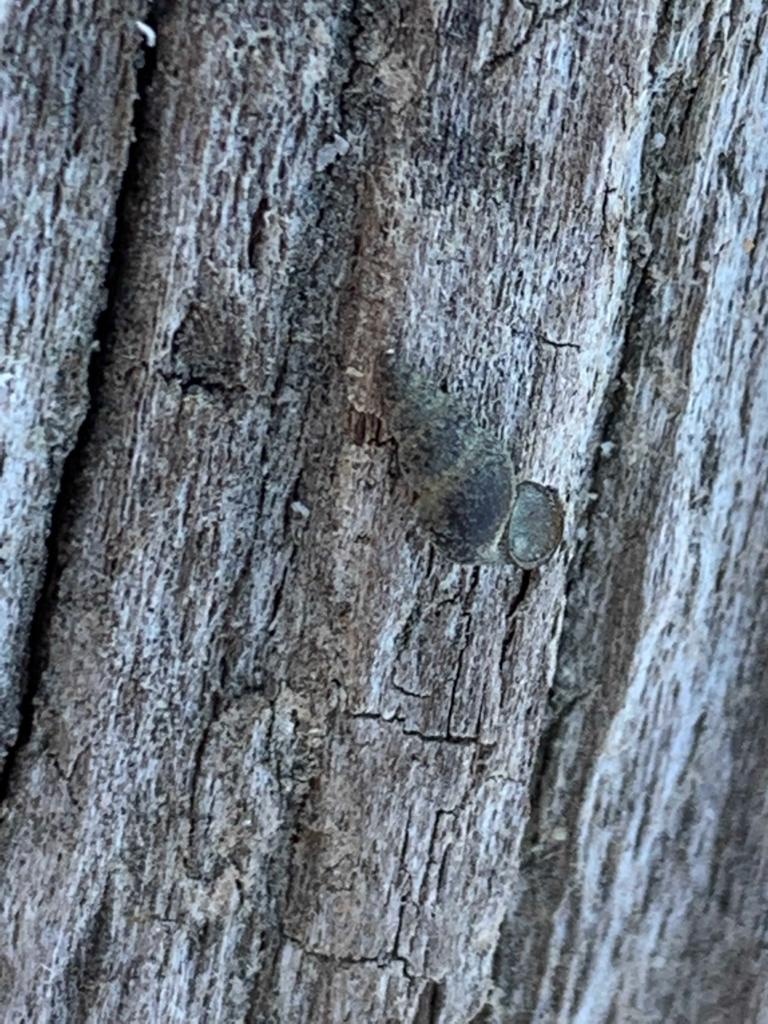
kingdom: Animalia
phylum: Mollusca
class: Gastropoda
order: Littorinimorpha
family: Tateidae
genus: Potamopyrgus
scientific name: Potamopyrgus antipodarum
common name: Jenkins' spire snail
